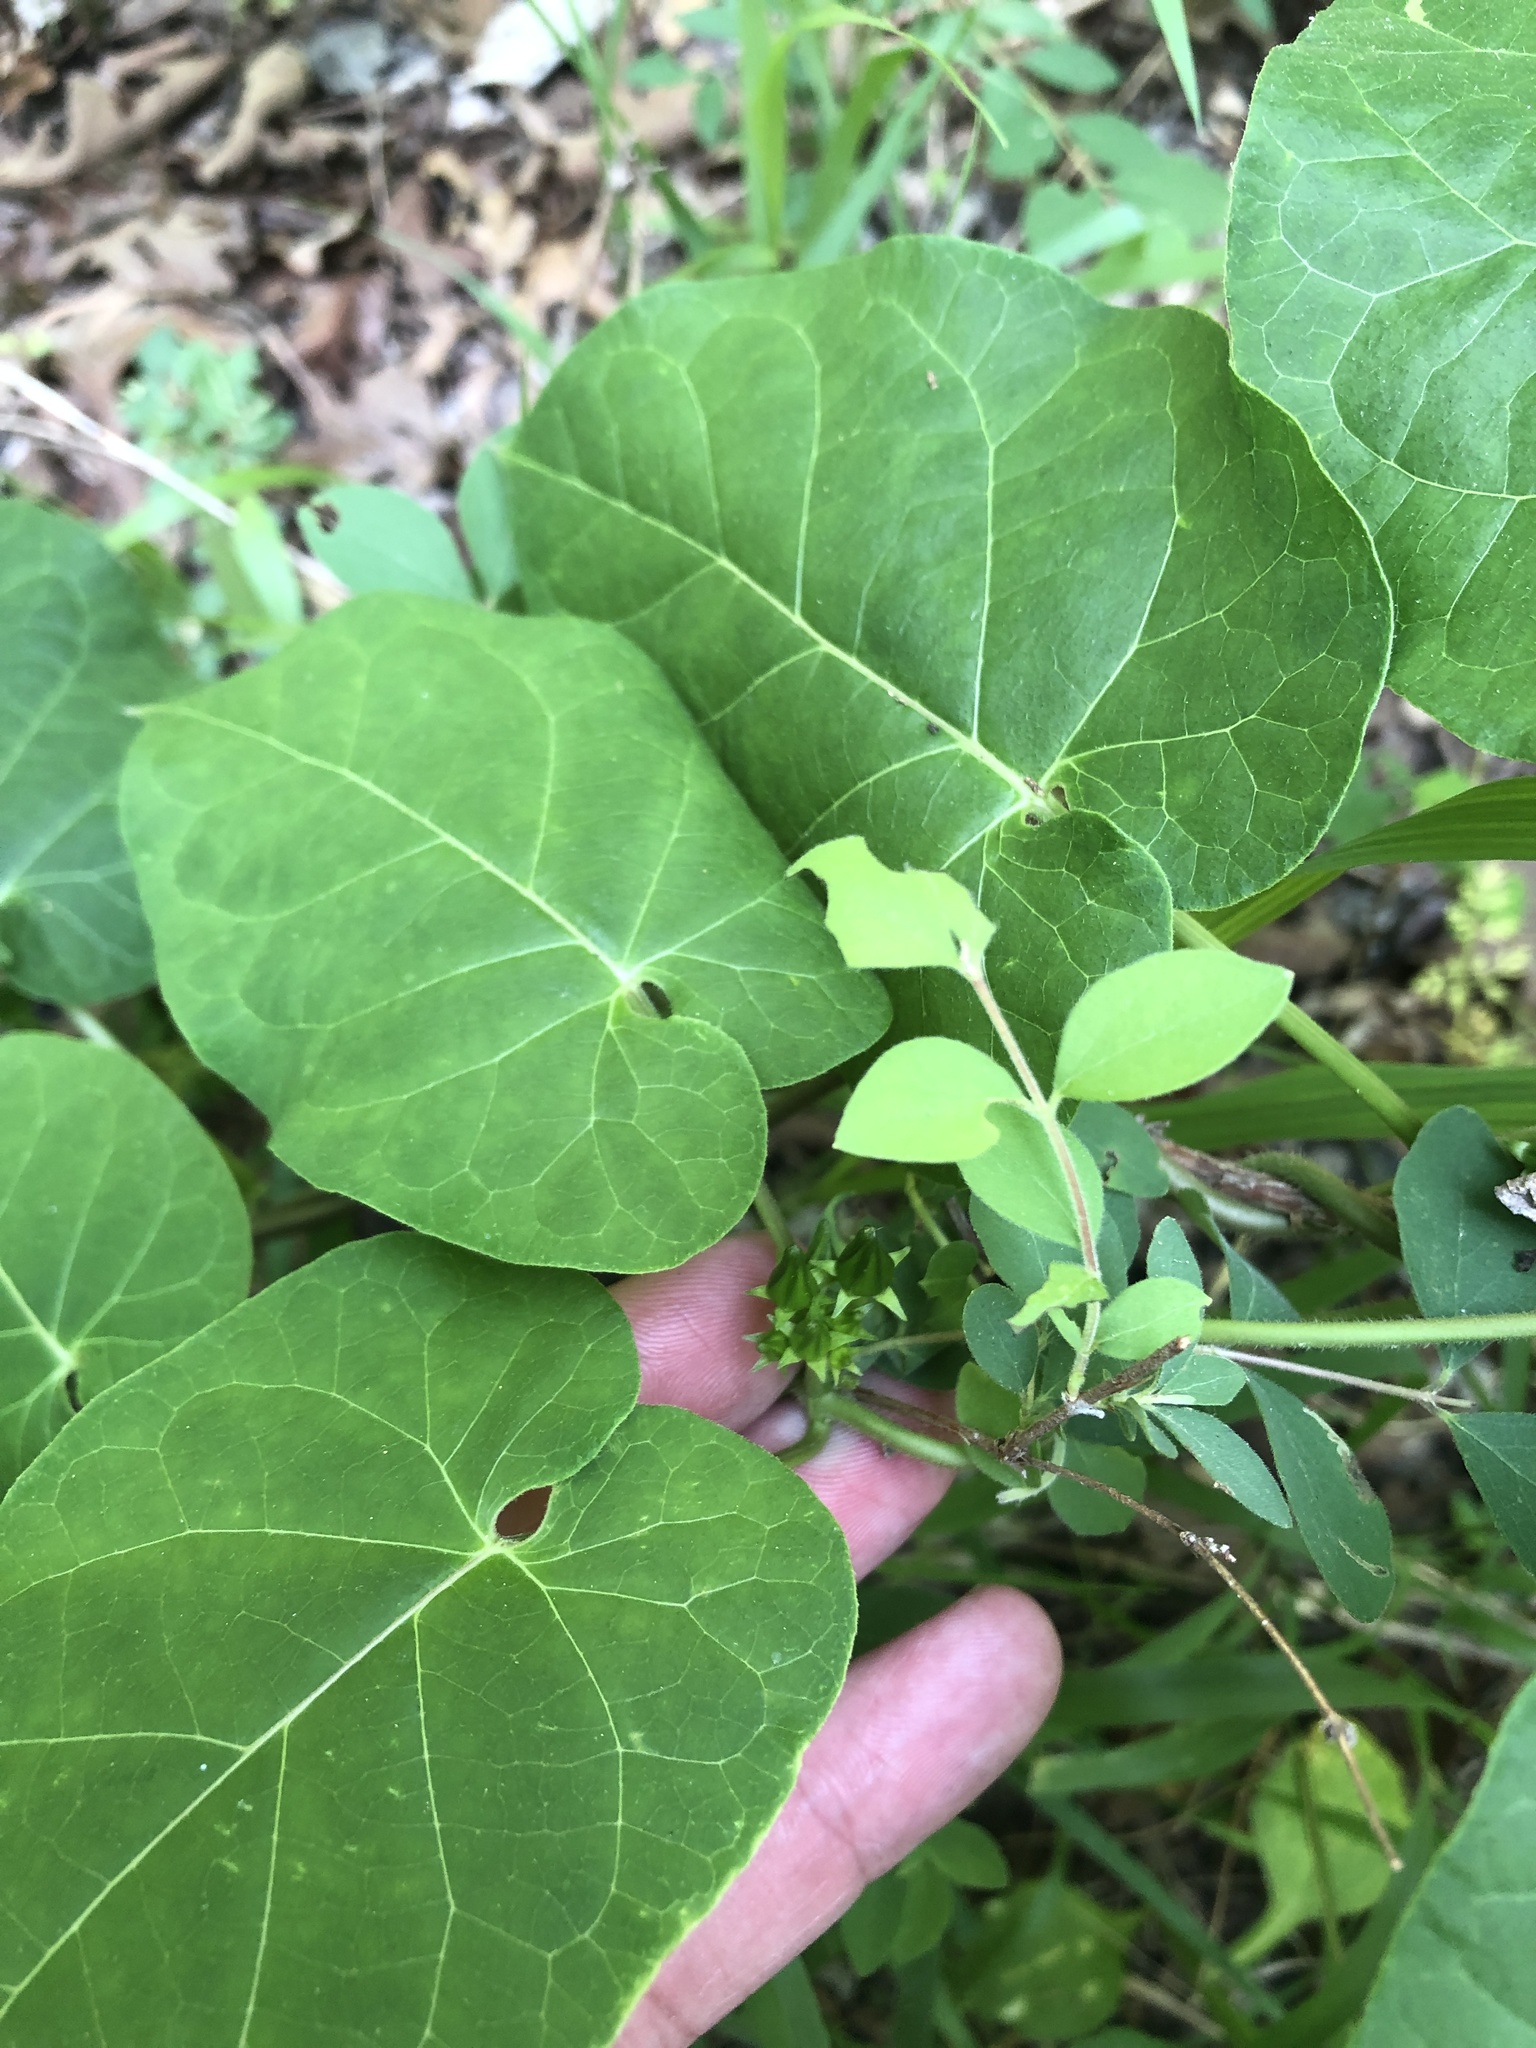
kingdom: Plantae
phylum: Tracheophyta
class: Magnoliopsida
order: Gentianales
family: Apocynaceae
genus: Gonolobus
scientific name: Gonolobus suberosus
